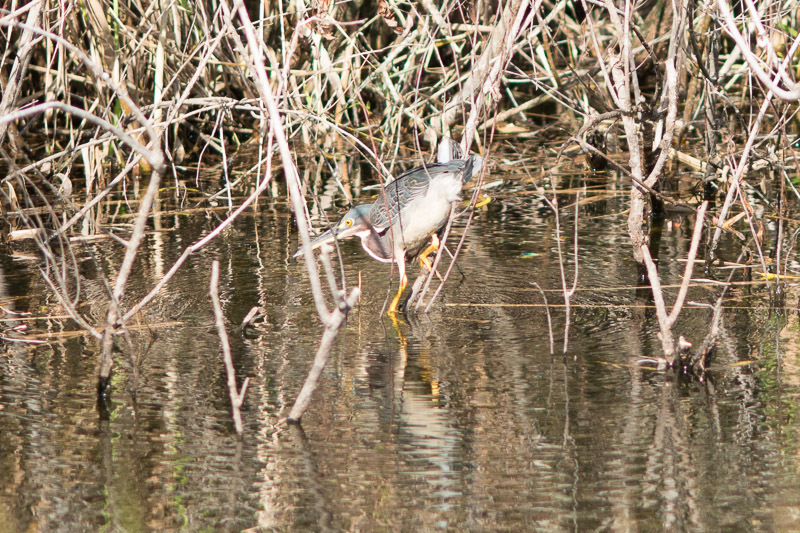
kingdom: Animalia
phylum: Chordata
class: Aves
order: Pelecaniformes
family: Ardeidae
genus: Butorides
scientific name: Butorides virescens
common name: Green heron
